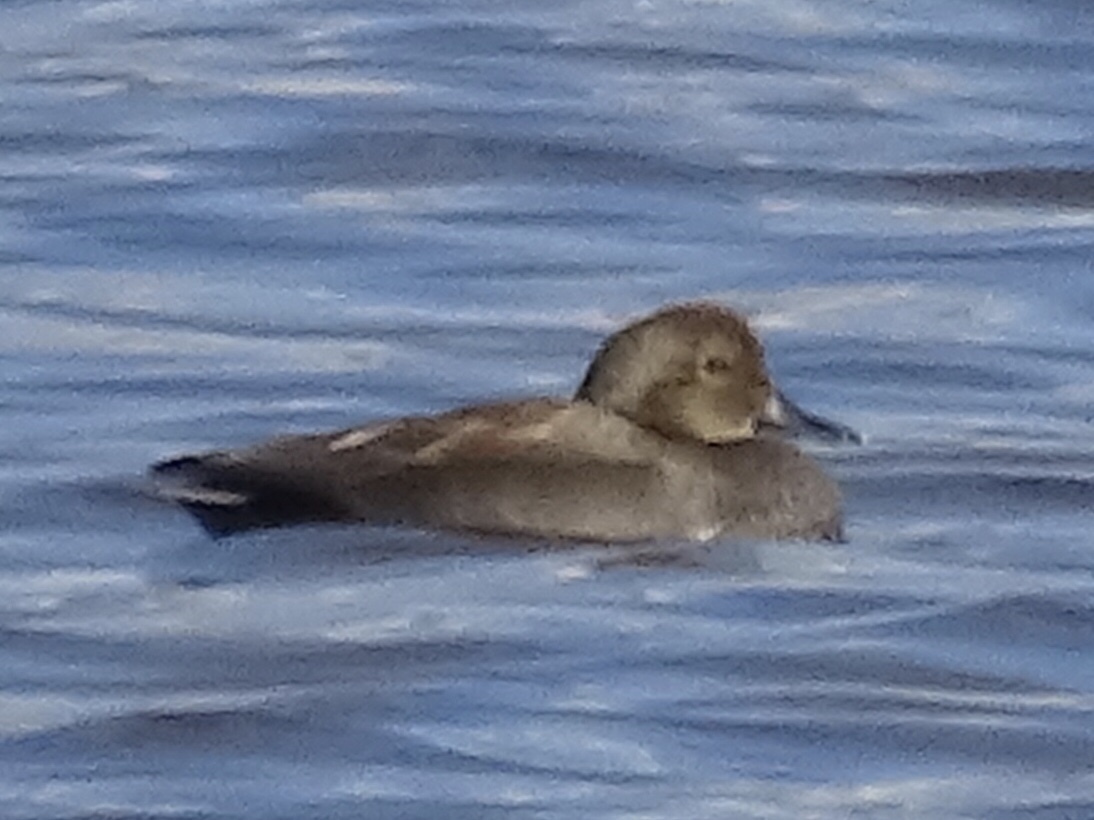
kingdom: Animalia
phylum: Chordata
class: Aves
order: Anseriformes
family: Anatidae
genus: Mareca
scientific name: Mareca strepera
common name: Gadwall
